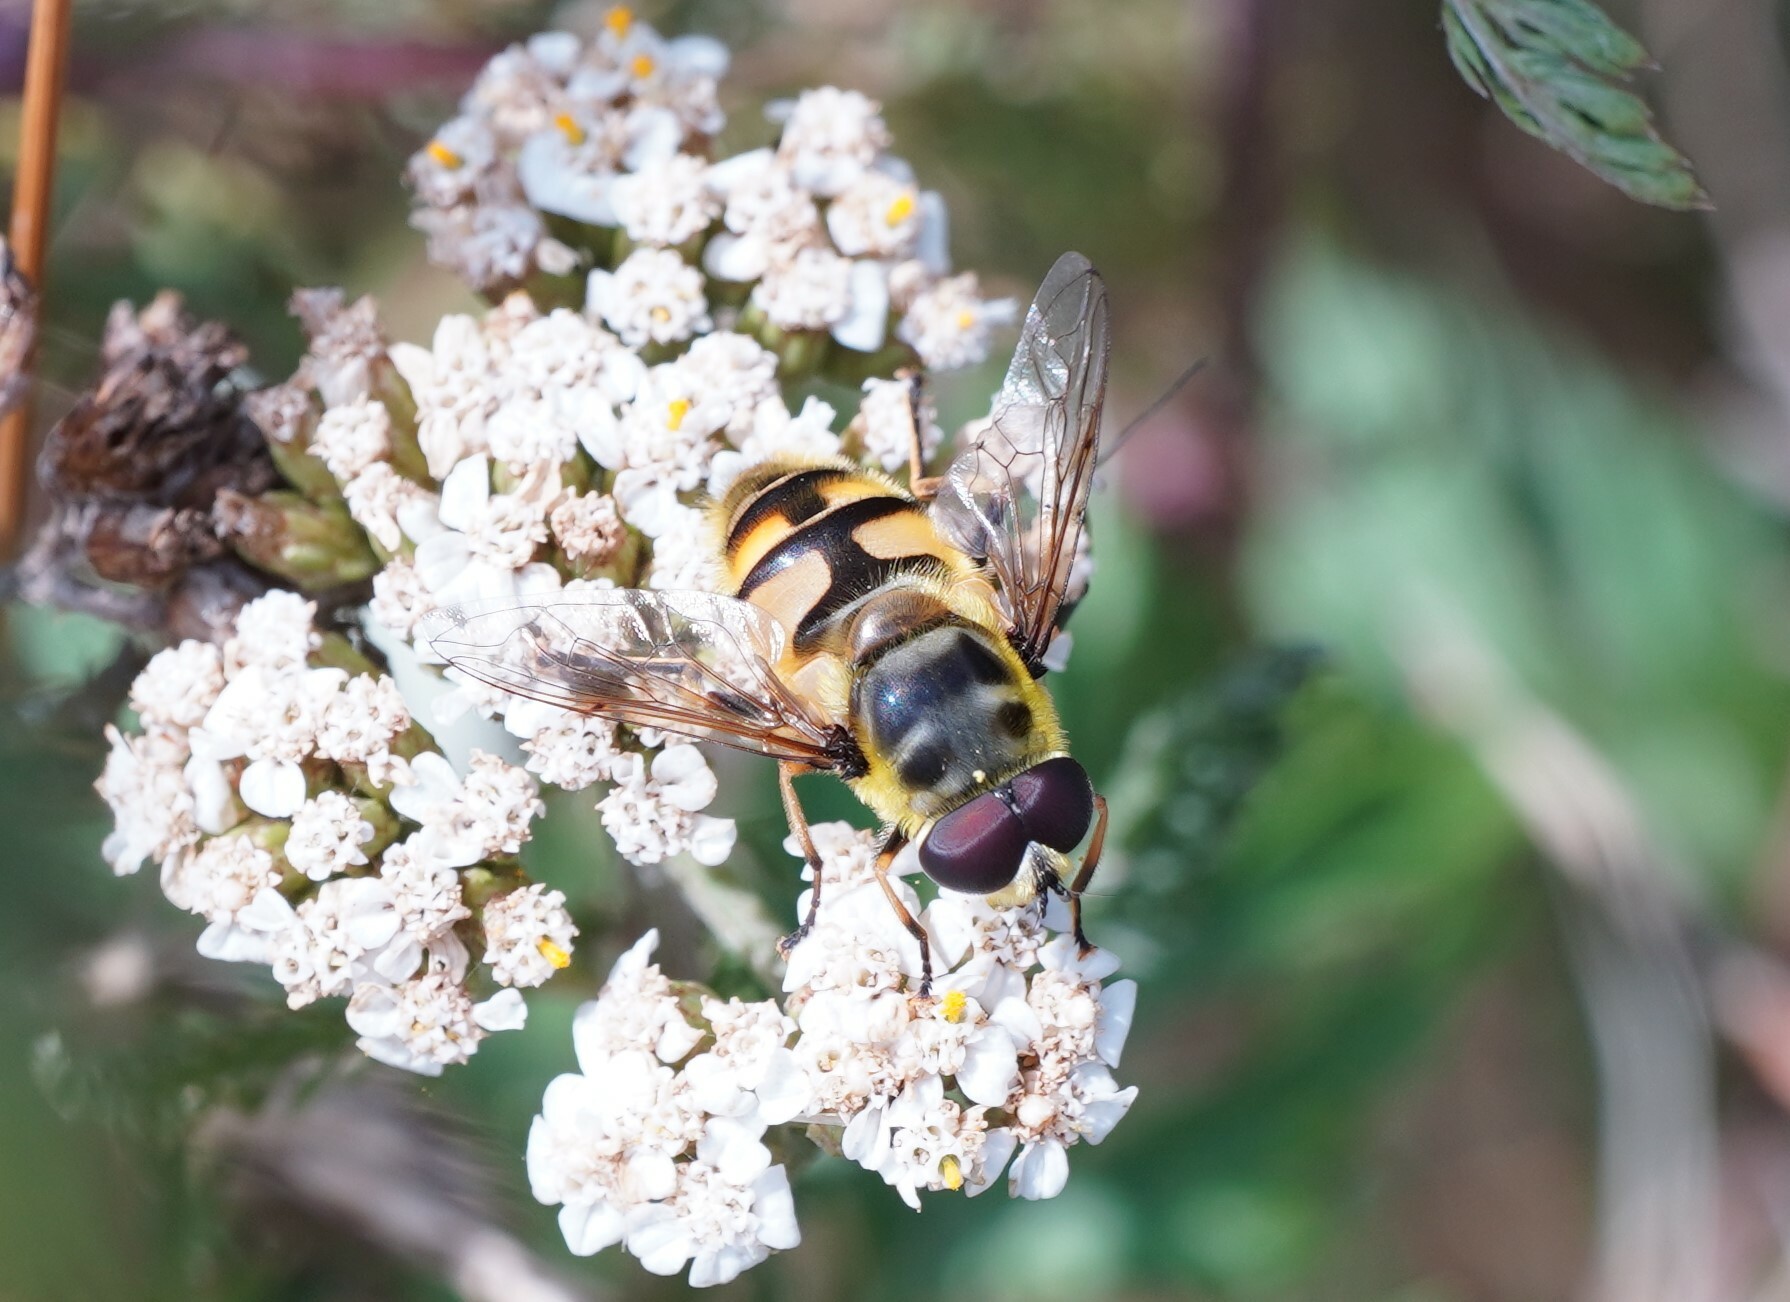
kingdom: Animalia
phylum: Arthropoda
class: Insecta
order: Diptera
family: Syrphidae
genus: Myathropa
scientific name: Myathropa florea
